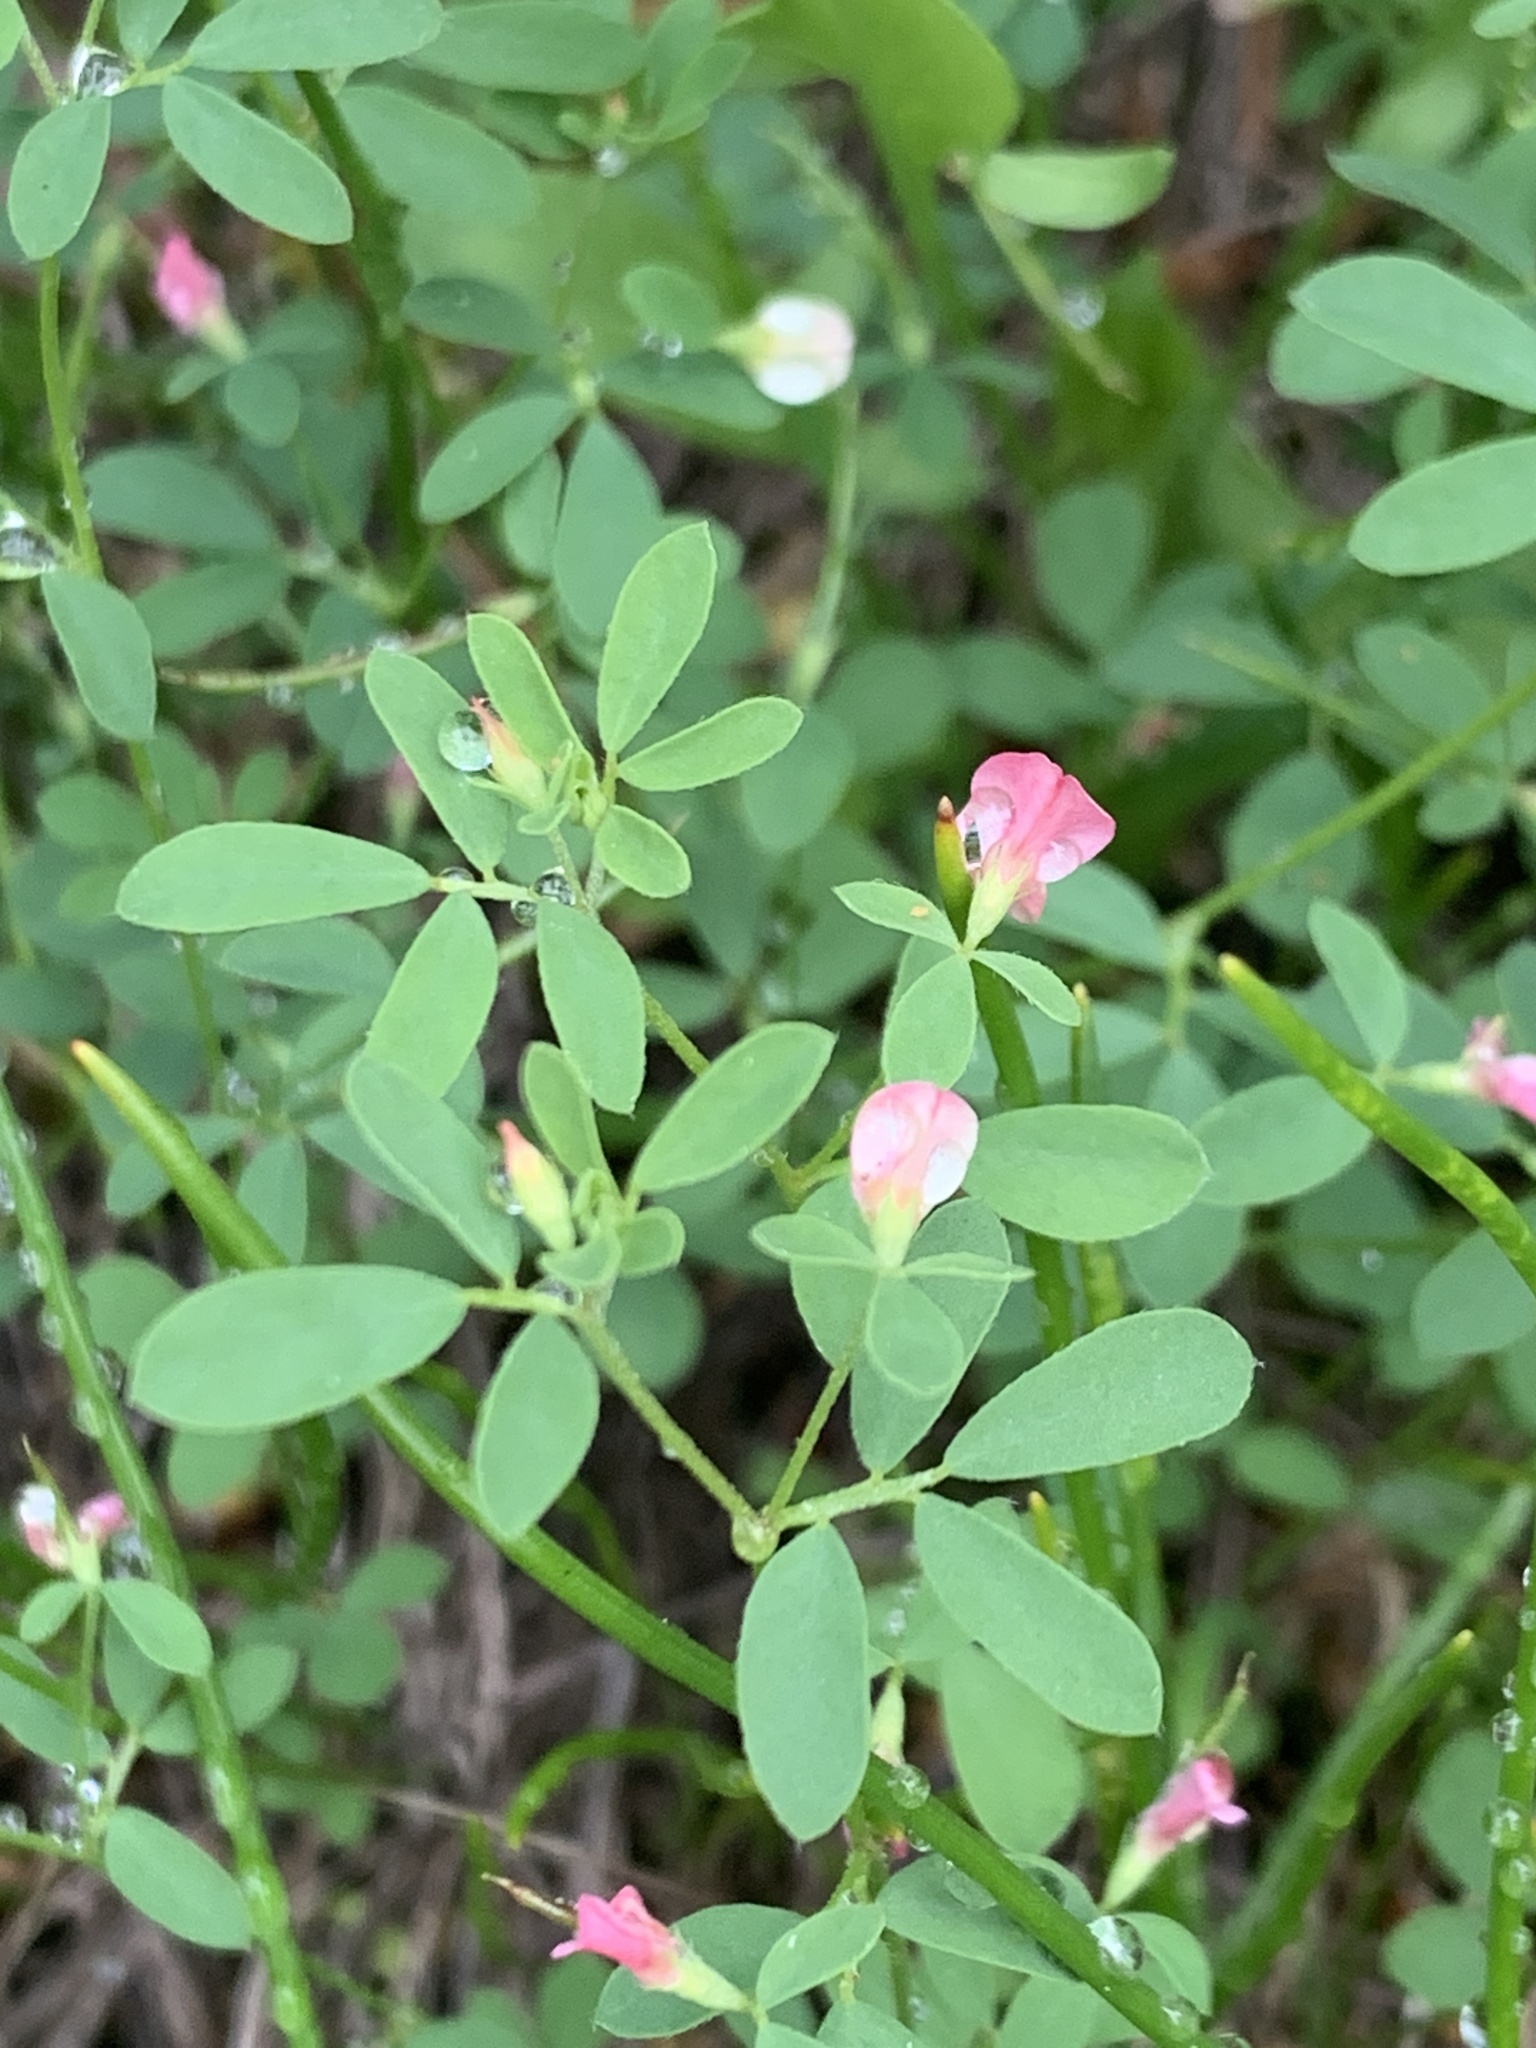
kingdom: Plantae
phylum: Tracheophyta
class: Magnoliopsida
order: Fabales
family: Fabaceae
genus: Acmispon
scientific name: Acmispon parviflorus
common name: Desert deer-vetch
